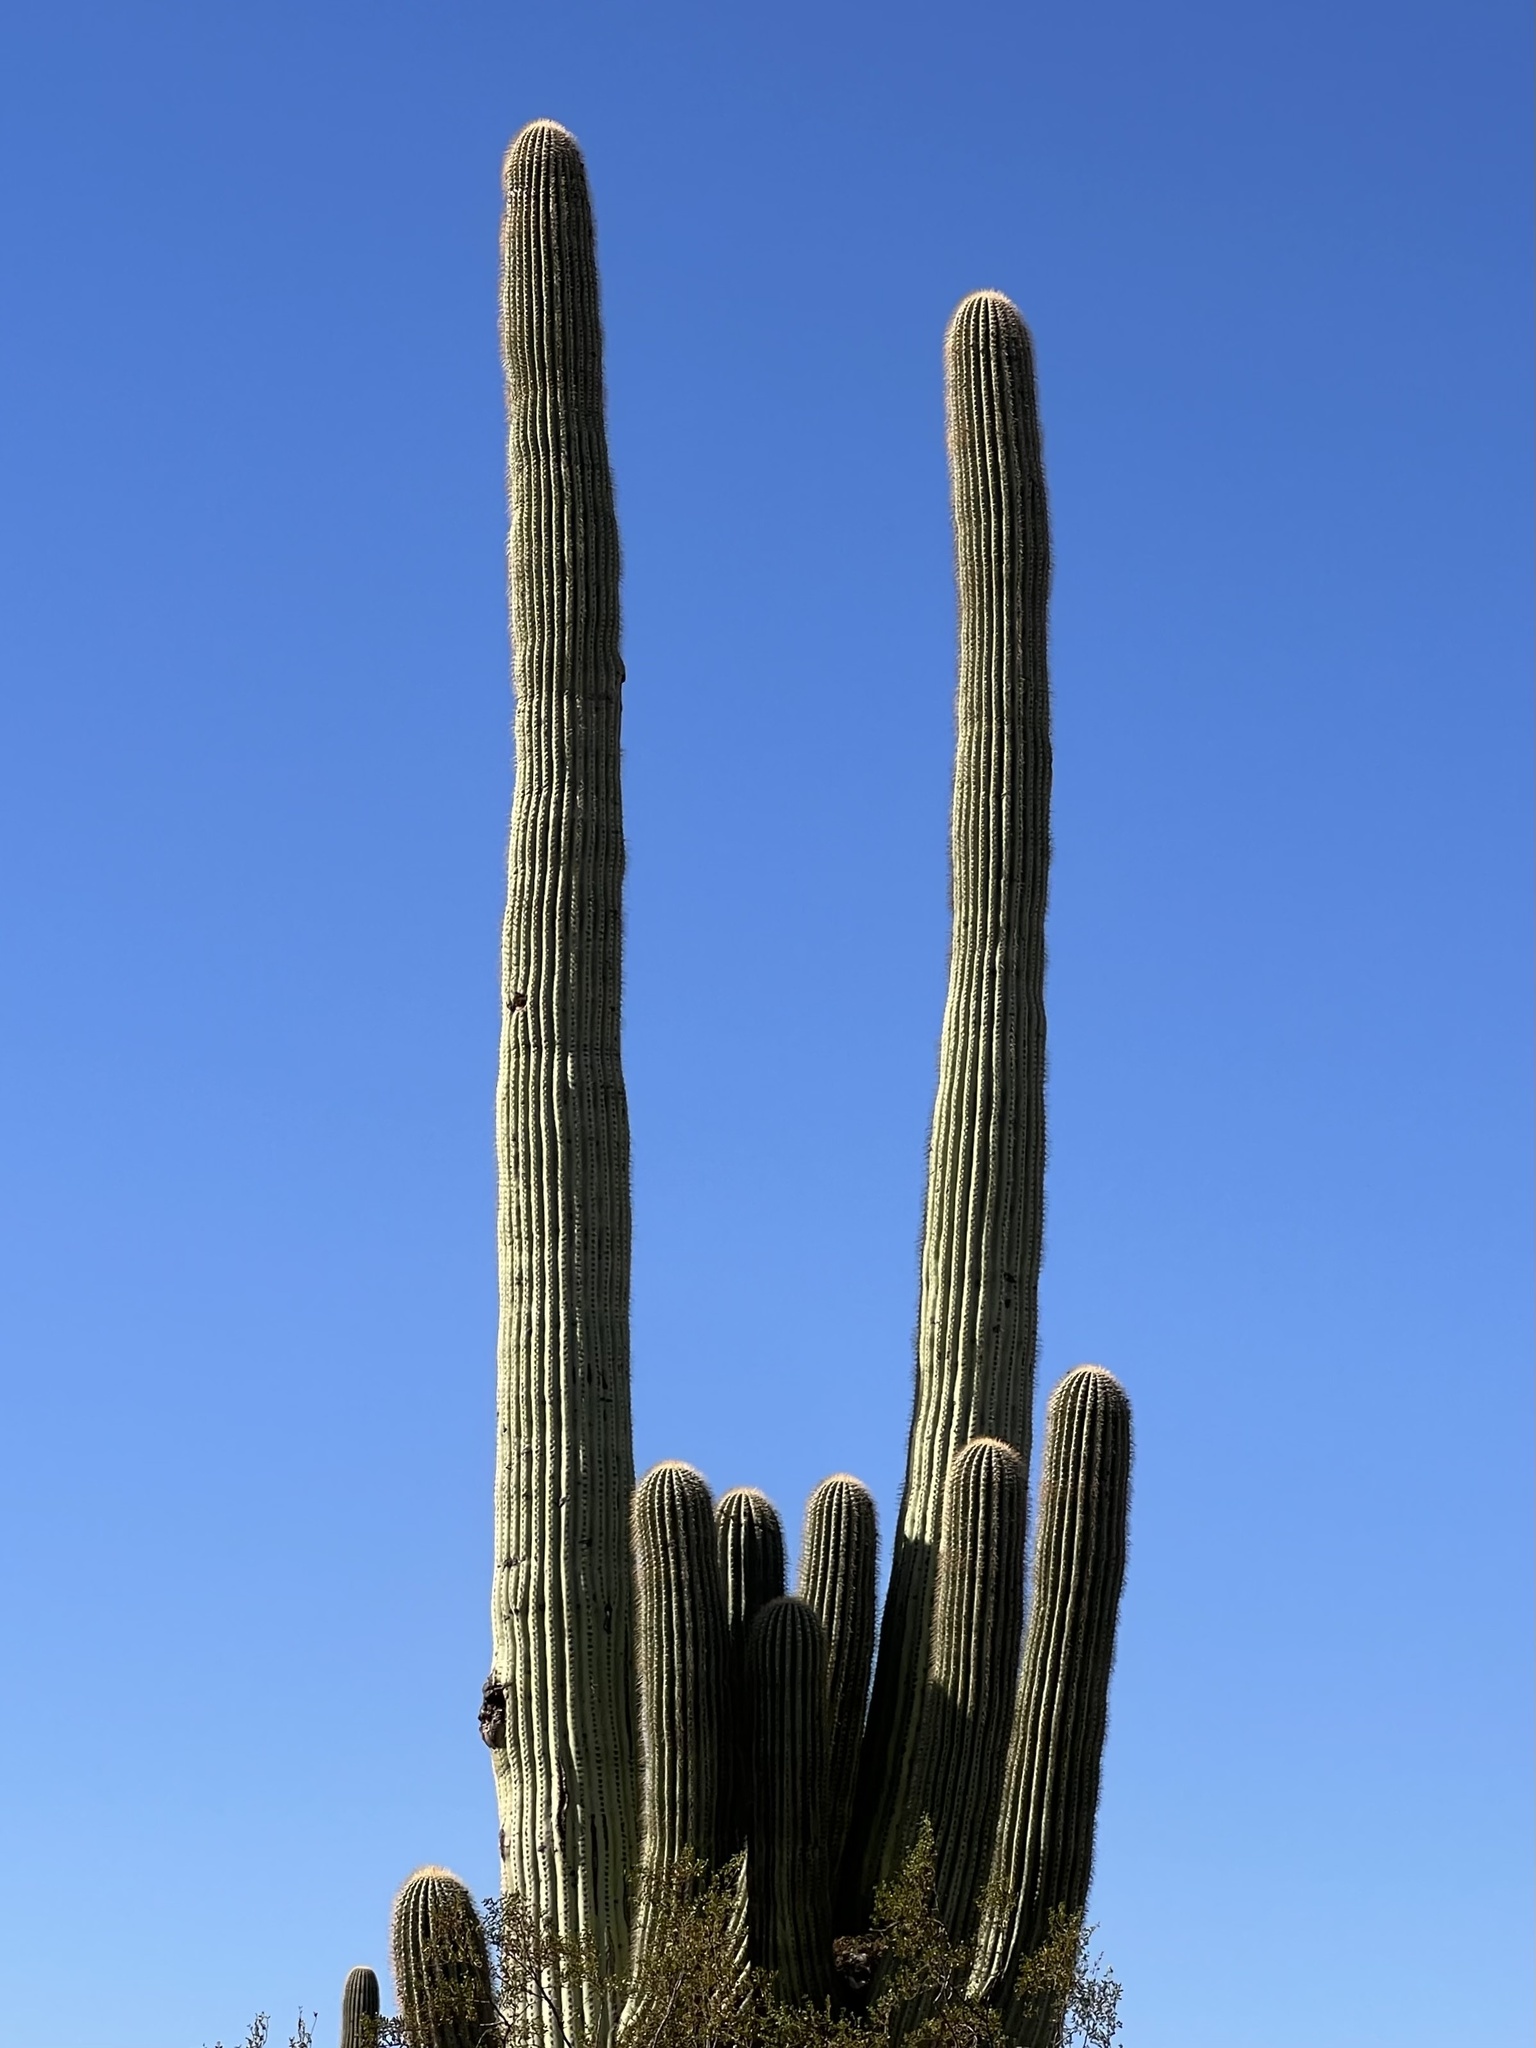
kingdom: Plantae
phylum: Tracheophyta
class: Magnoliopsida
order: Caryophyllales
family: Cactaceae
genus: Carnegiea
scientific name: Carnegiea gigantea
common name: Saguaro
